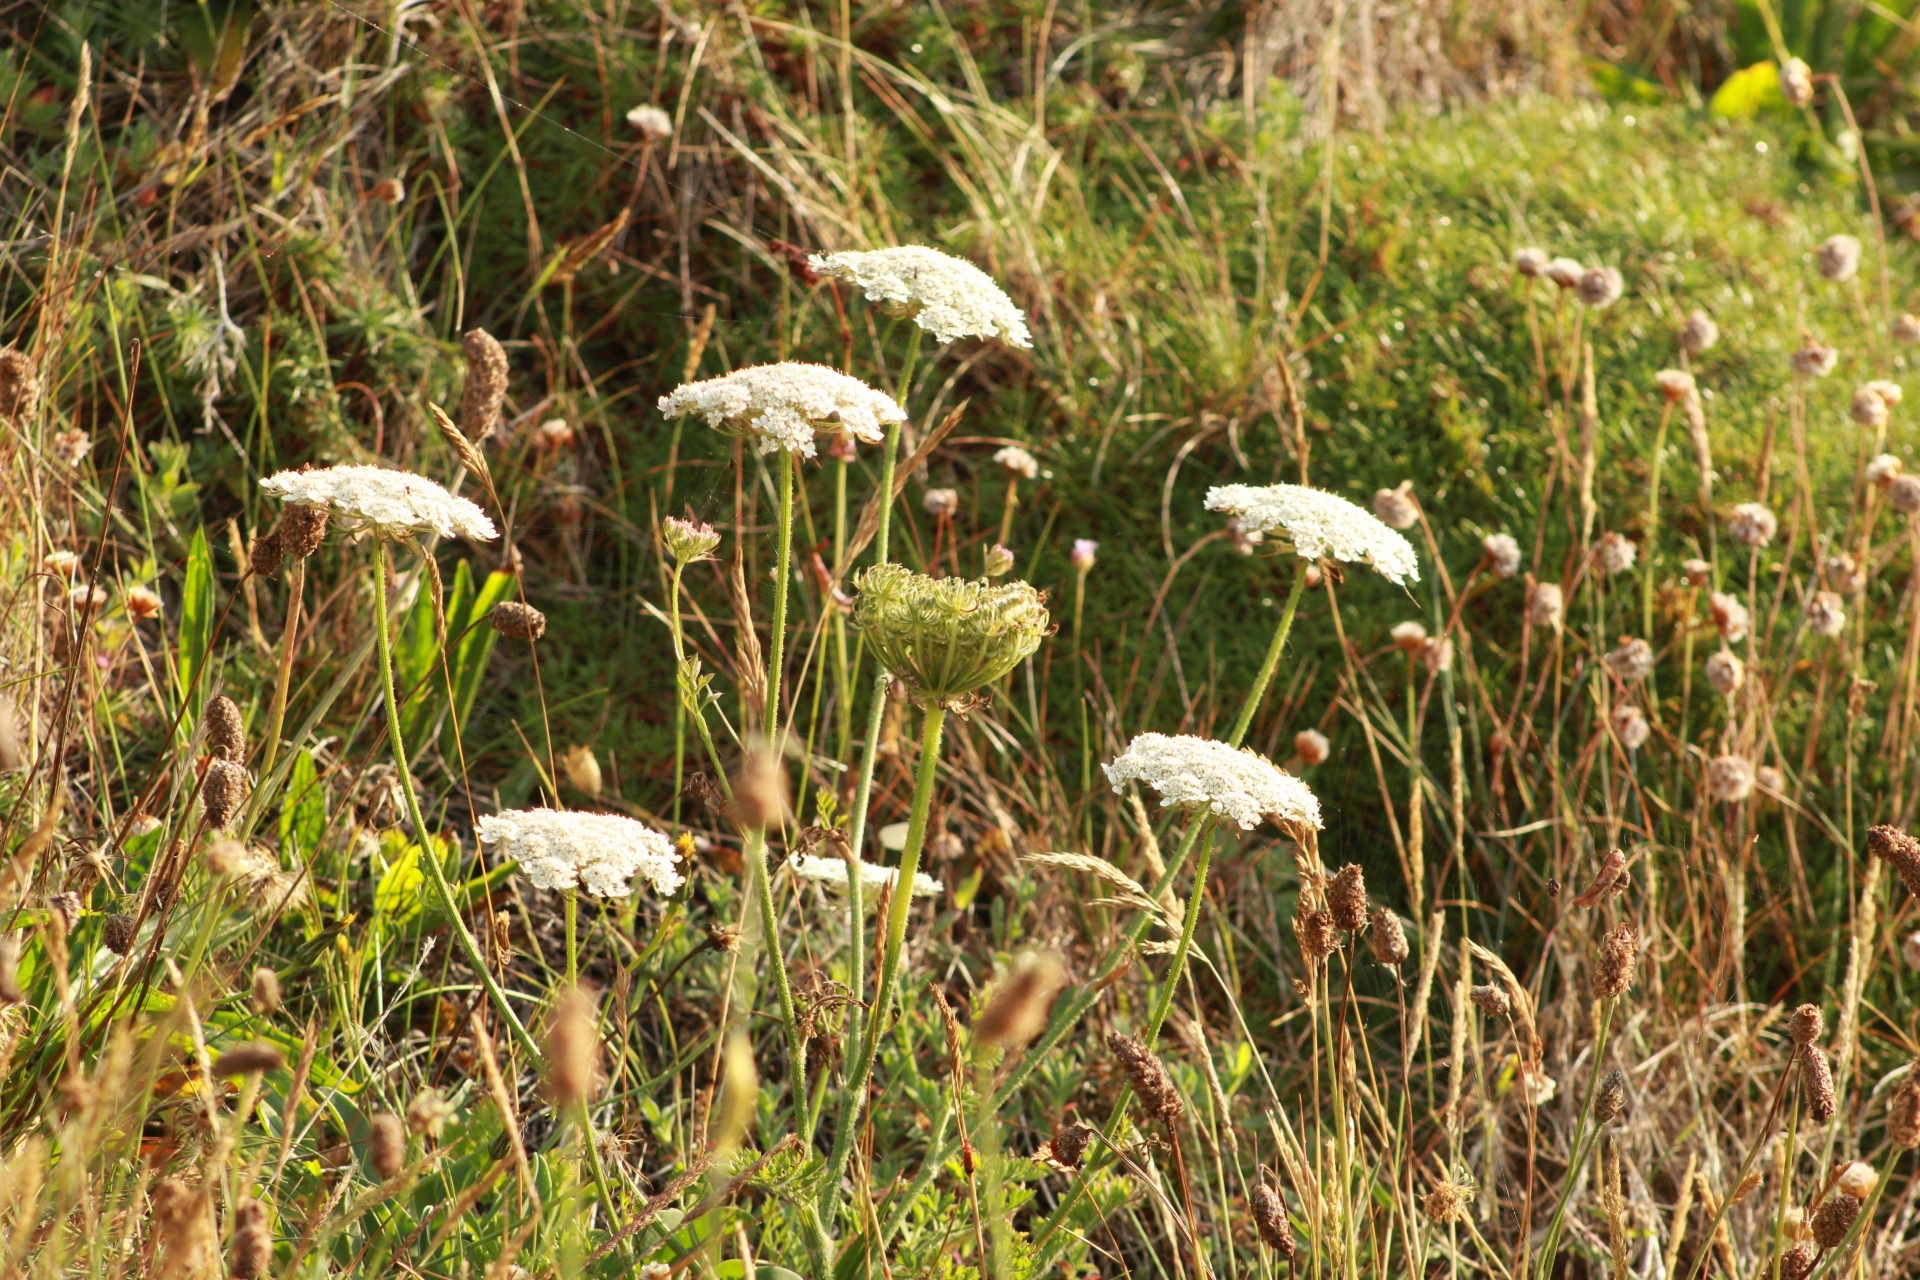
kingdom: Plantae
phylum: Tracheophyta
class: Magnoliopsida
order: Apiales
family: Apiaceae
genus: Daucus
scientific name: Daucus carota
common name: Wild carrot
